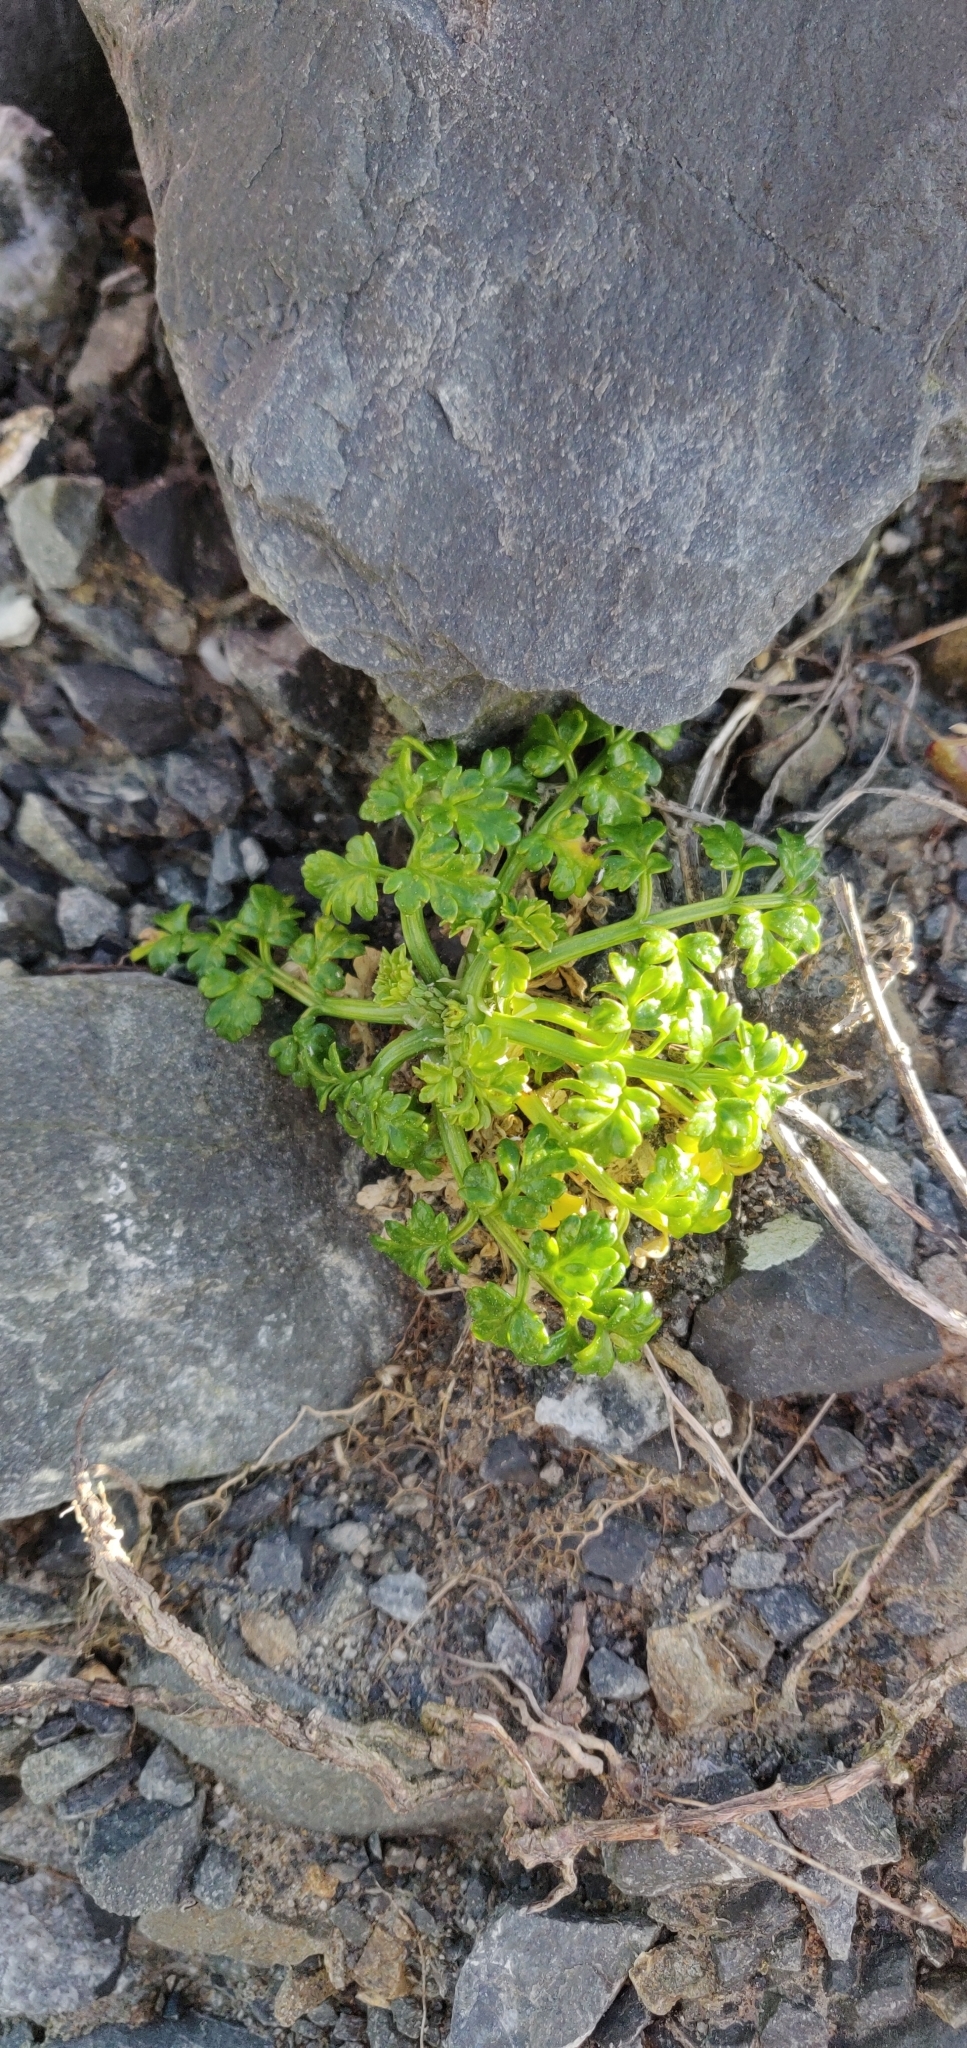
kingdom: Plantae
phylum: Tracheophyta
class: Magnoliopsida
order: Apiales
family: Apiaceae
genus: Apium
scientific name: Apium prostratum
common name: Prostrate marshwort
